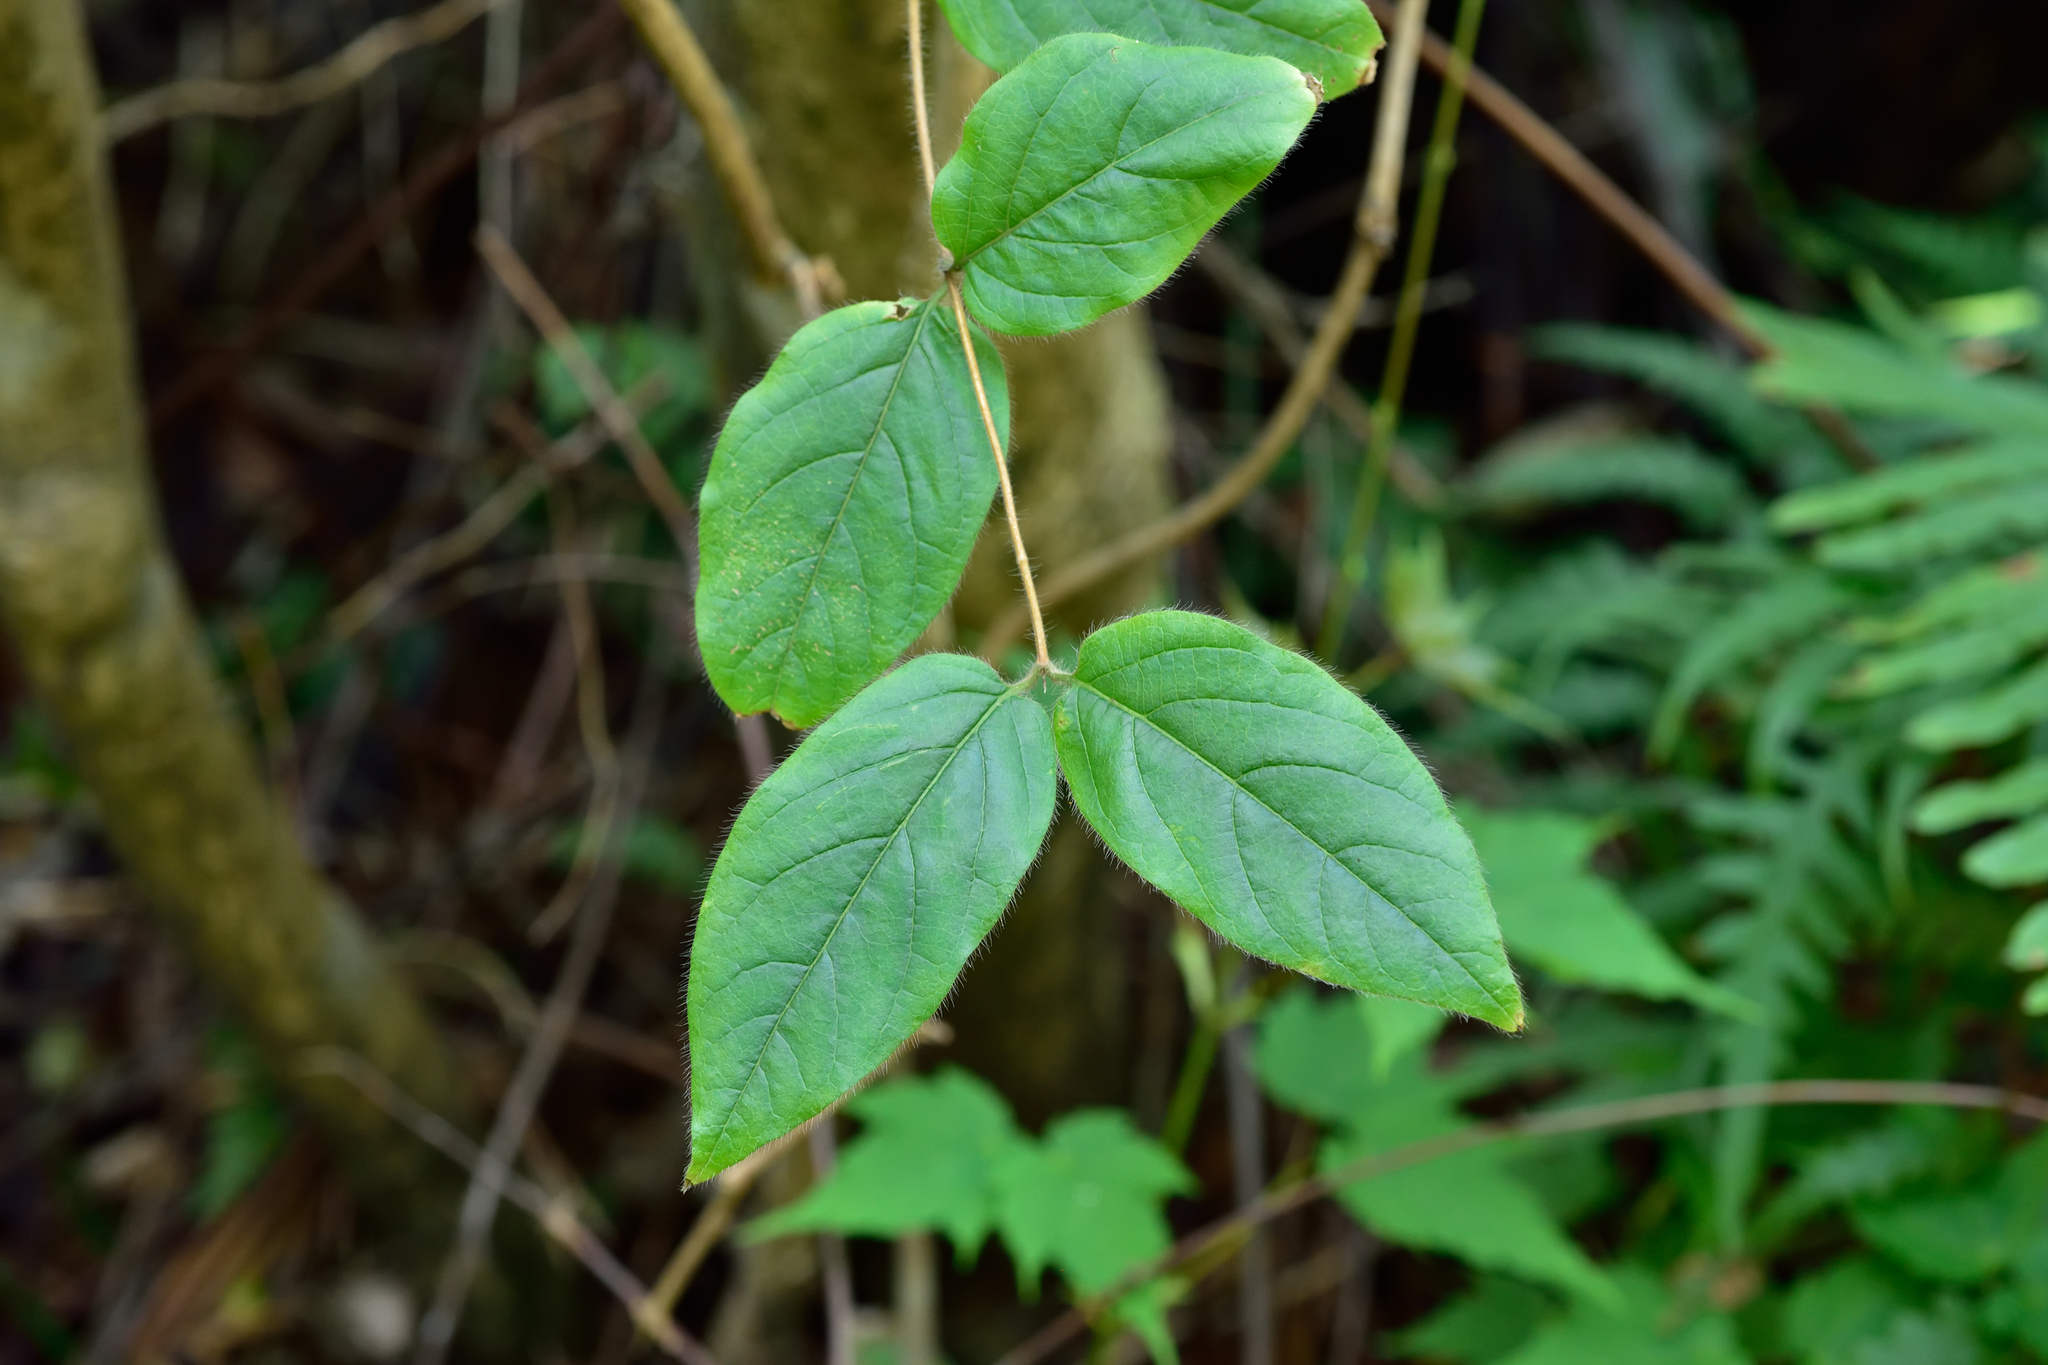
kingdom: Plantae
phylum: Tracheophyta
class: Magnoliopsida
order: Dipsacales
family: Caprifoliaceae
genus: Lonicera
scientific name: Lonicera hypoglauca
